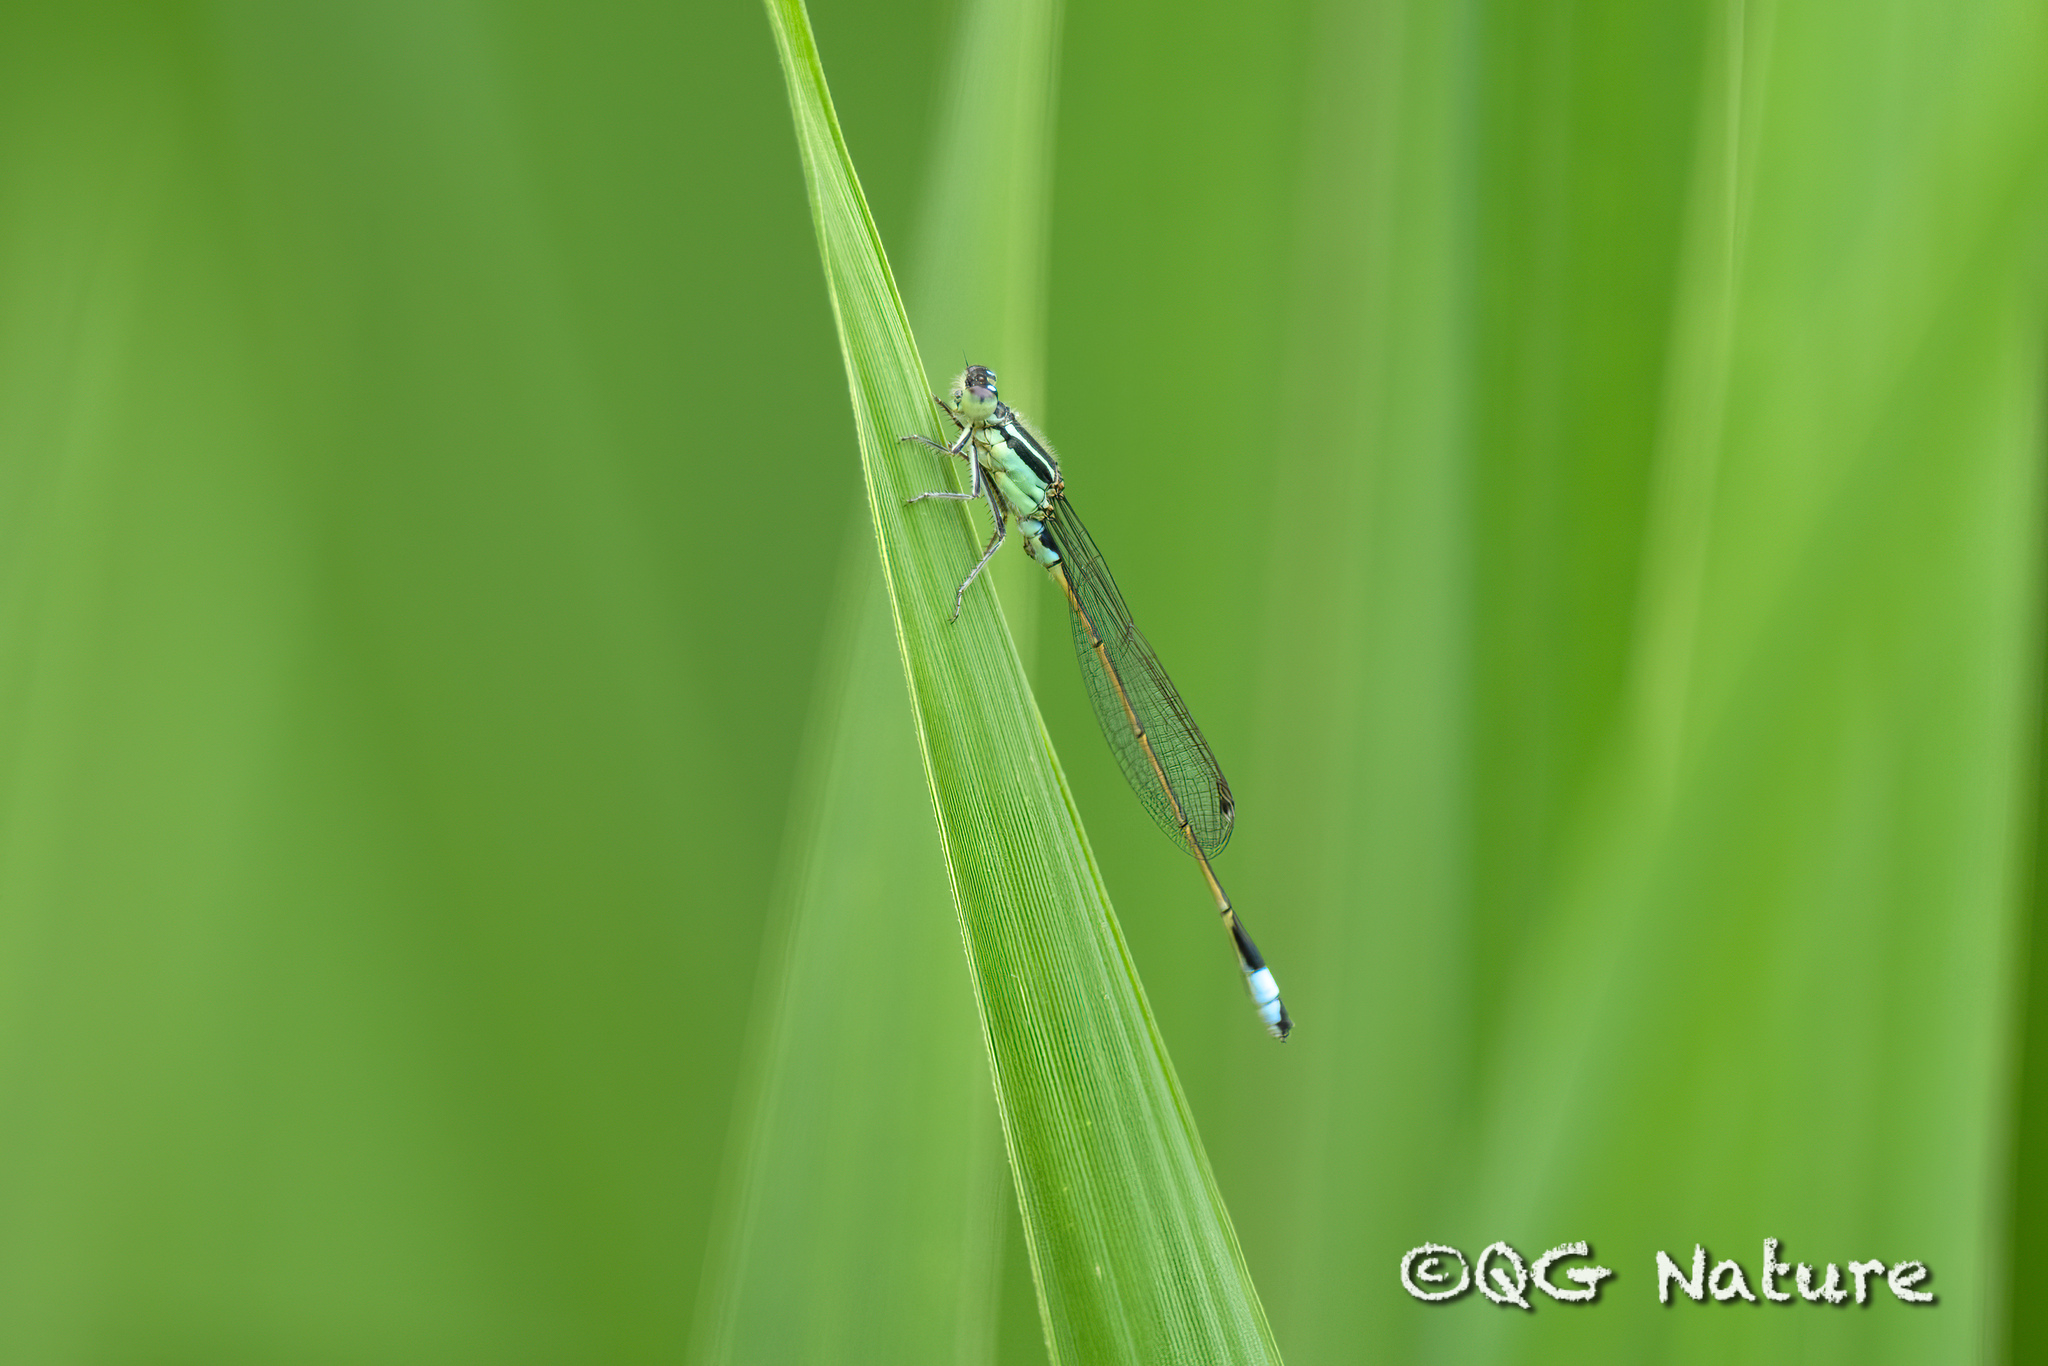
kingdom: Animalia
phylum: Arthropoda
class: Insecta
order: Odonata
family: Coenagrionidae
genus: Ischnura
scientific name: Ischnura senegalensis
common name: Tropical bluetail
